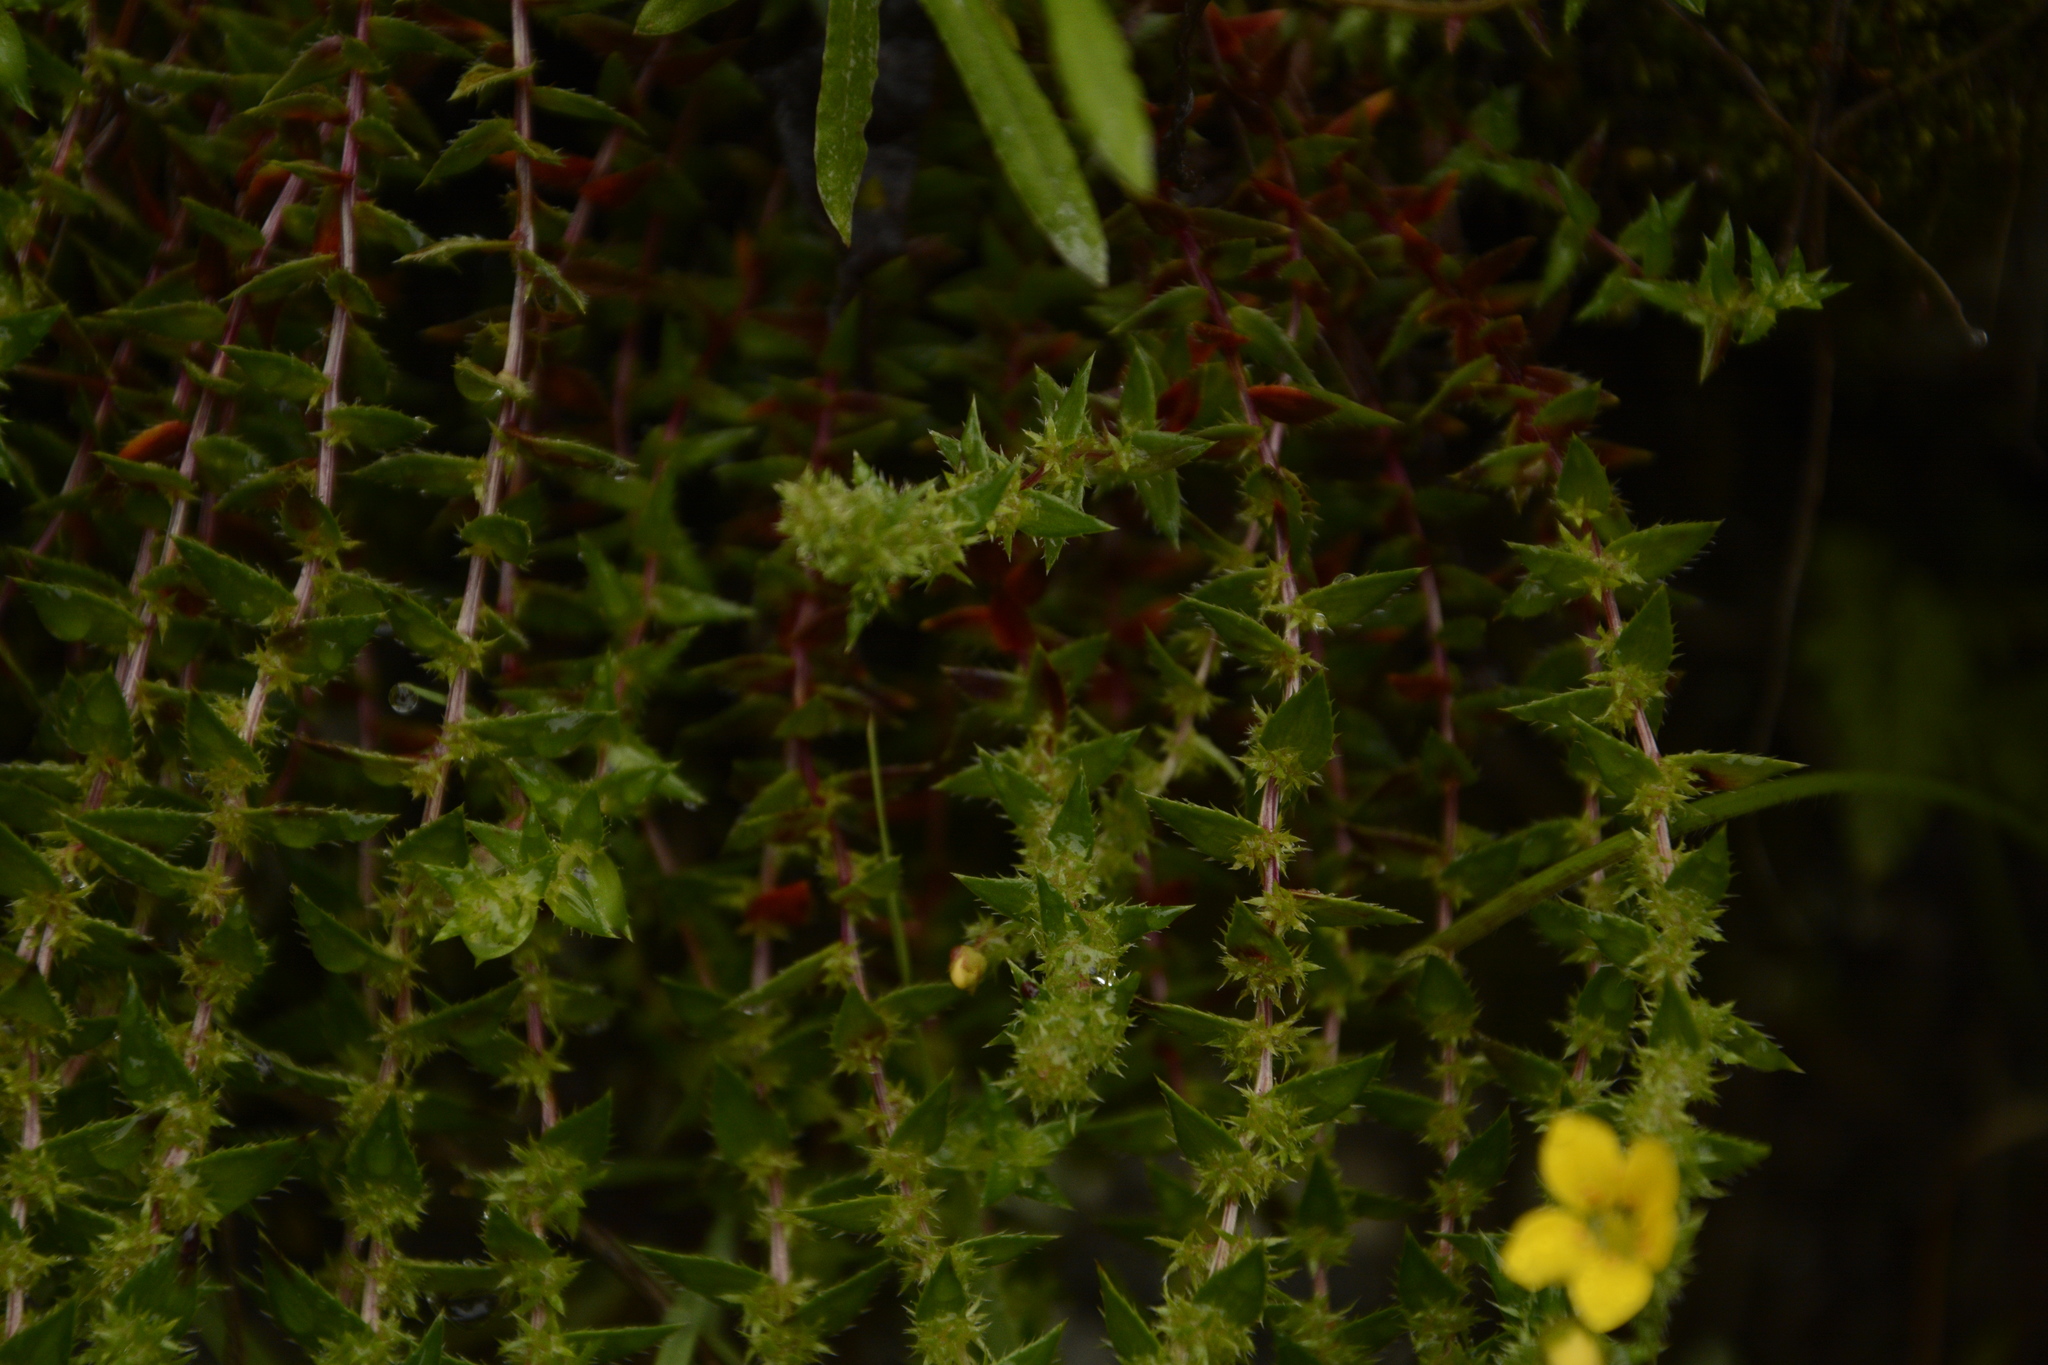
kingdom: Plantae
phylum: Tracheophyta
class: Magnoliopsida
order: Saxifragales
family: Saxifragaceae
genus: Saxifraga
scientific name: Saxifraga brachypoda
